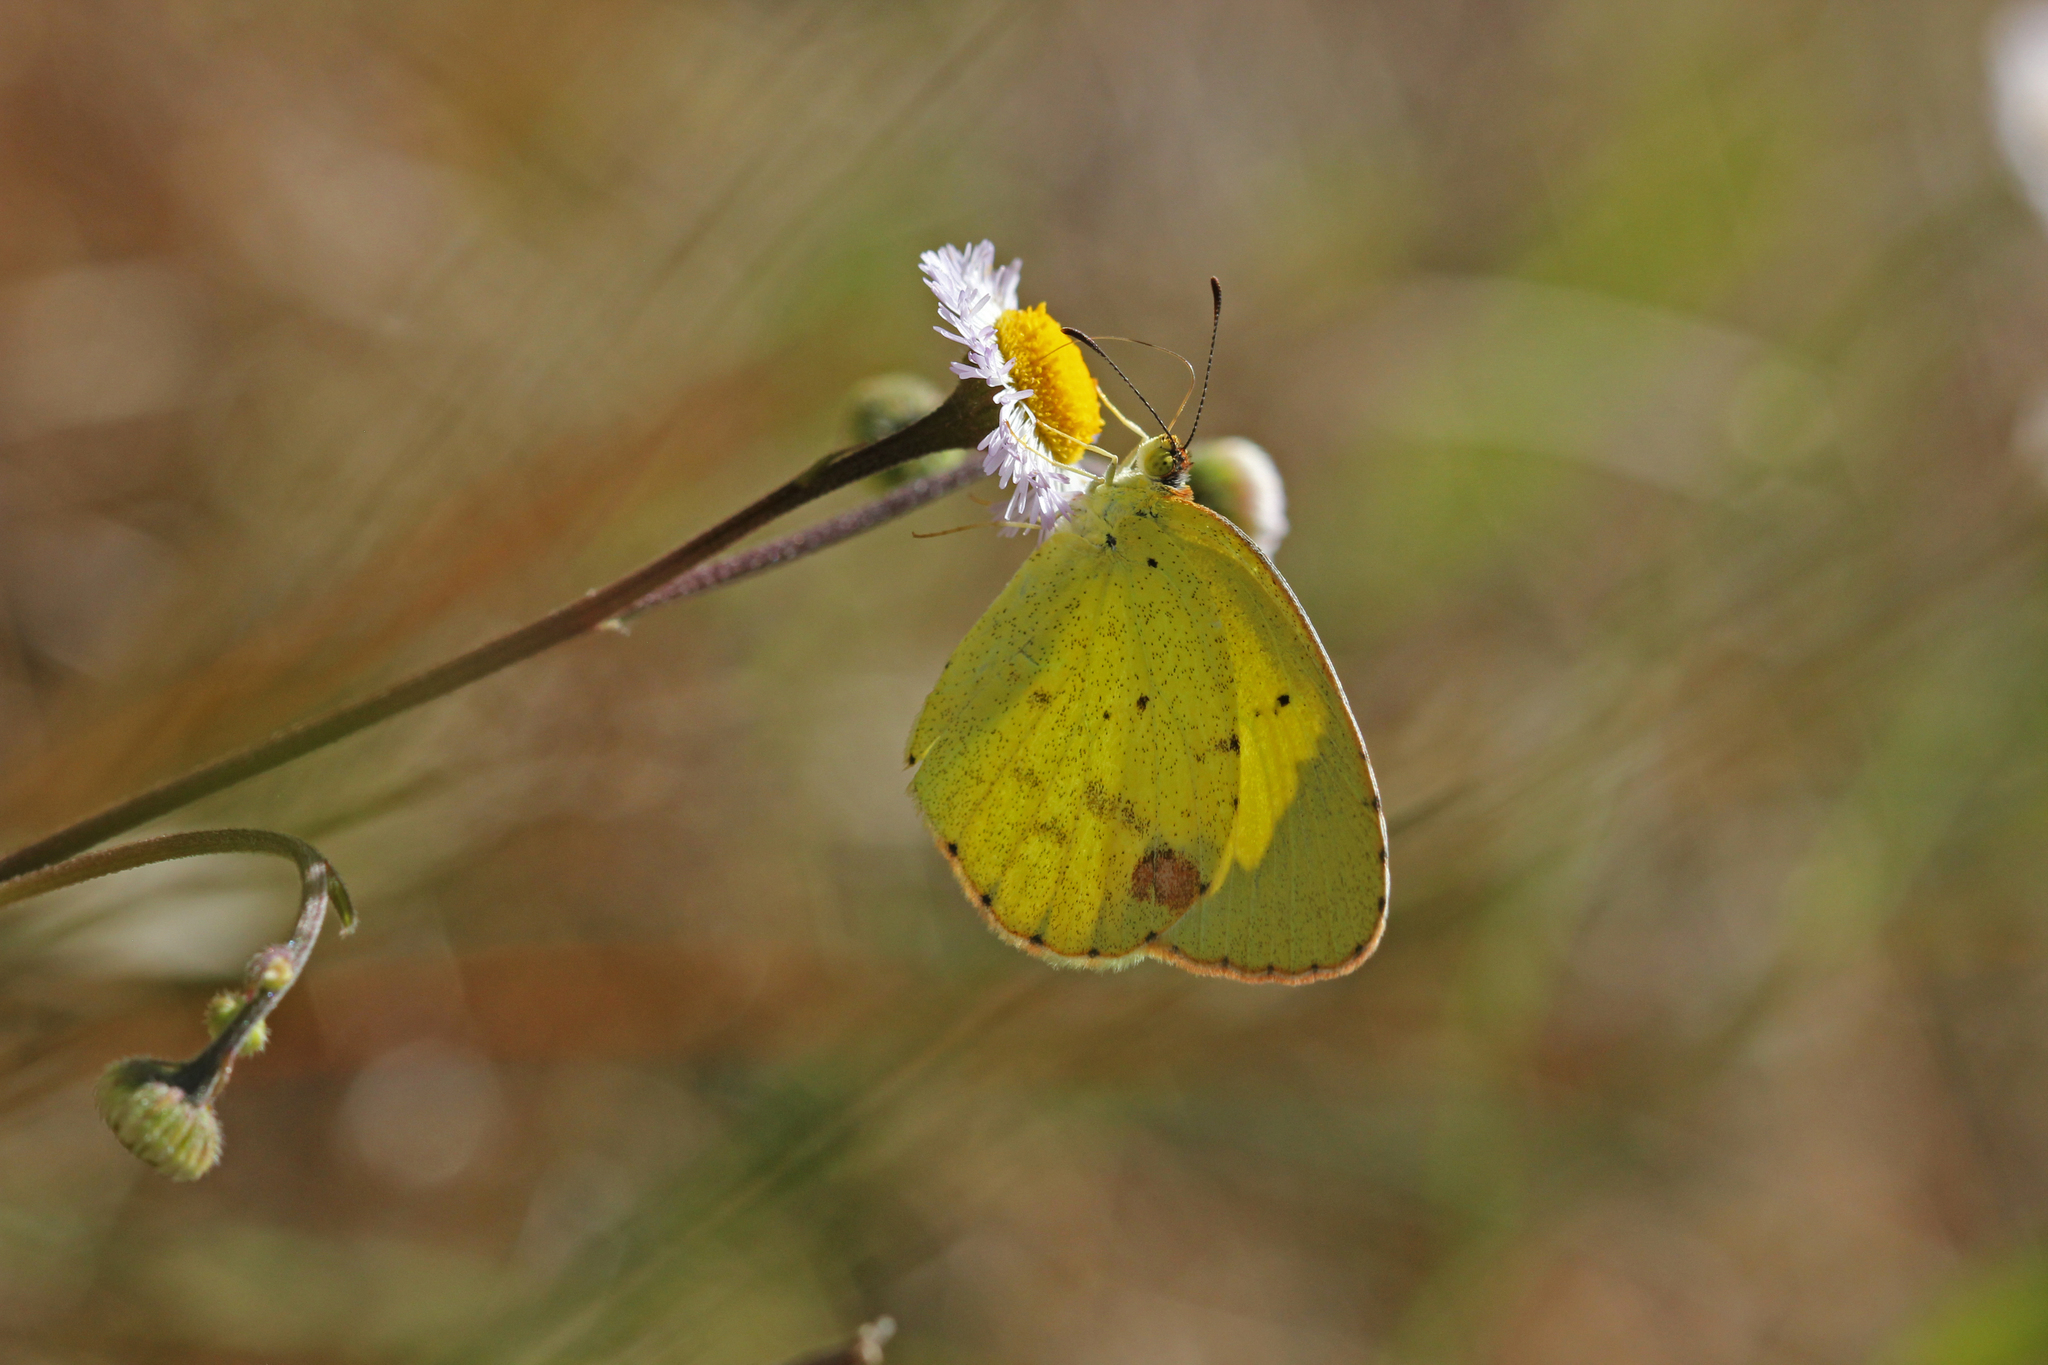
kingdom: Animalia
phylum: Arthropoda
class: Insecta
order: Lepidoptera
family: Pieridae
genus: Pyrisitia
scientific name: Pyrisitia lisa
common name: Little yellow
